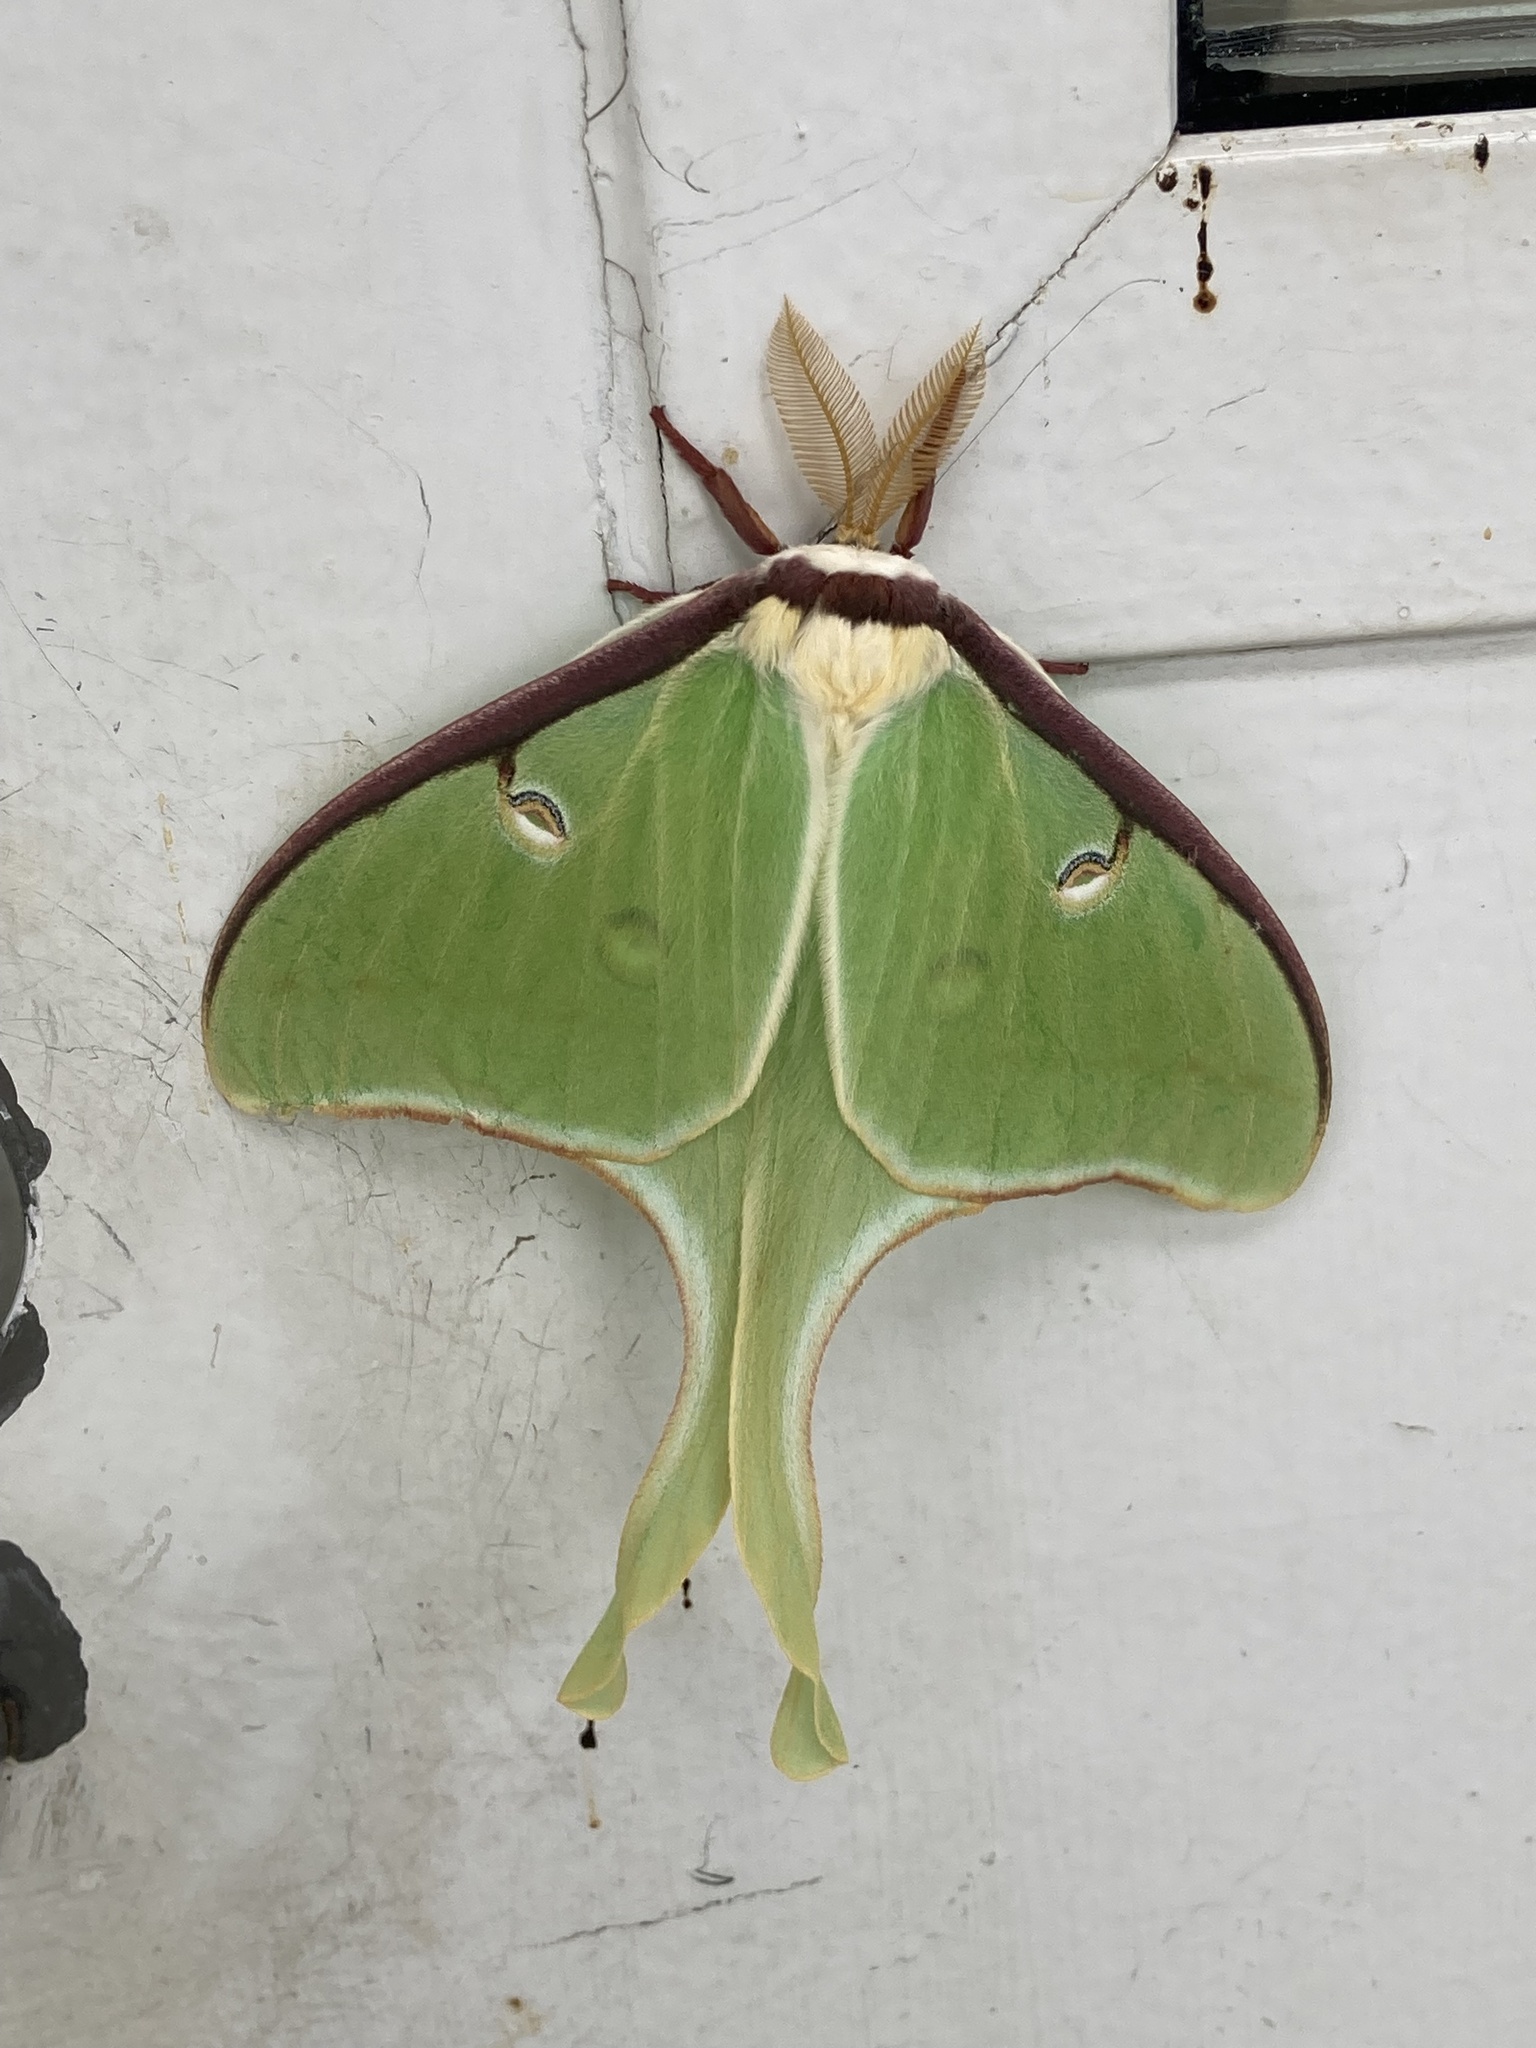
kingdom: Animalia
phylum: Arthropoda
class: Insecta
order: Lepidoptera
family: Saturniidae
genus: Actias
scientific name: Actias luna
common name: Luna moth
